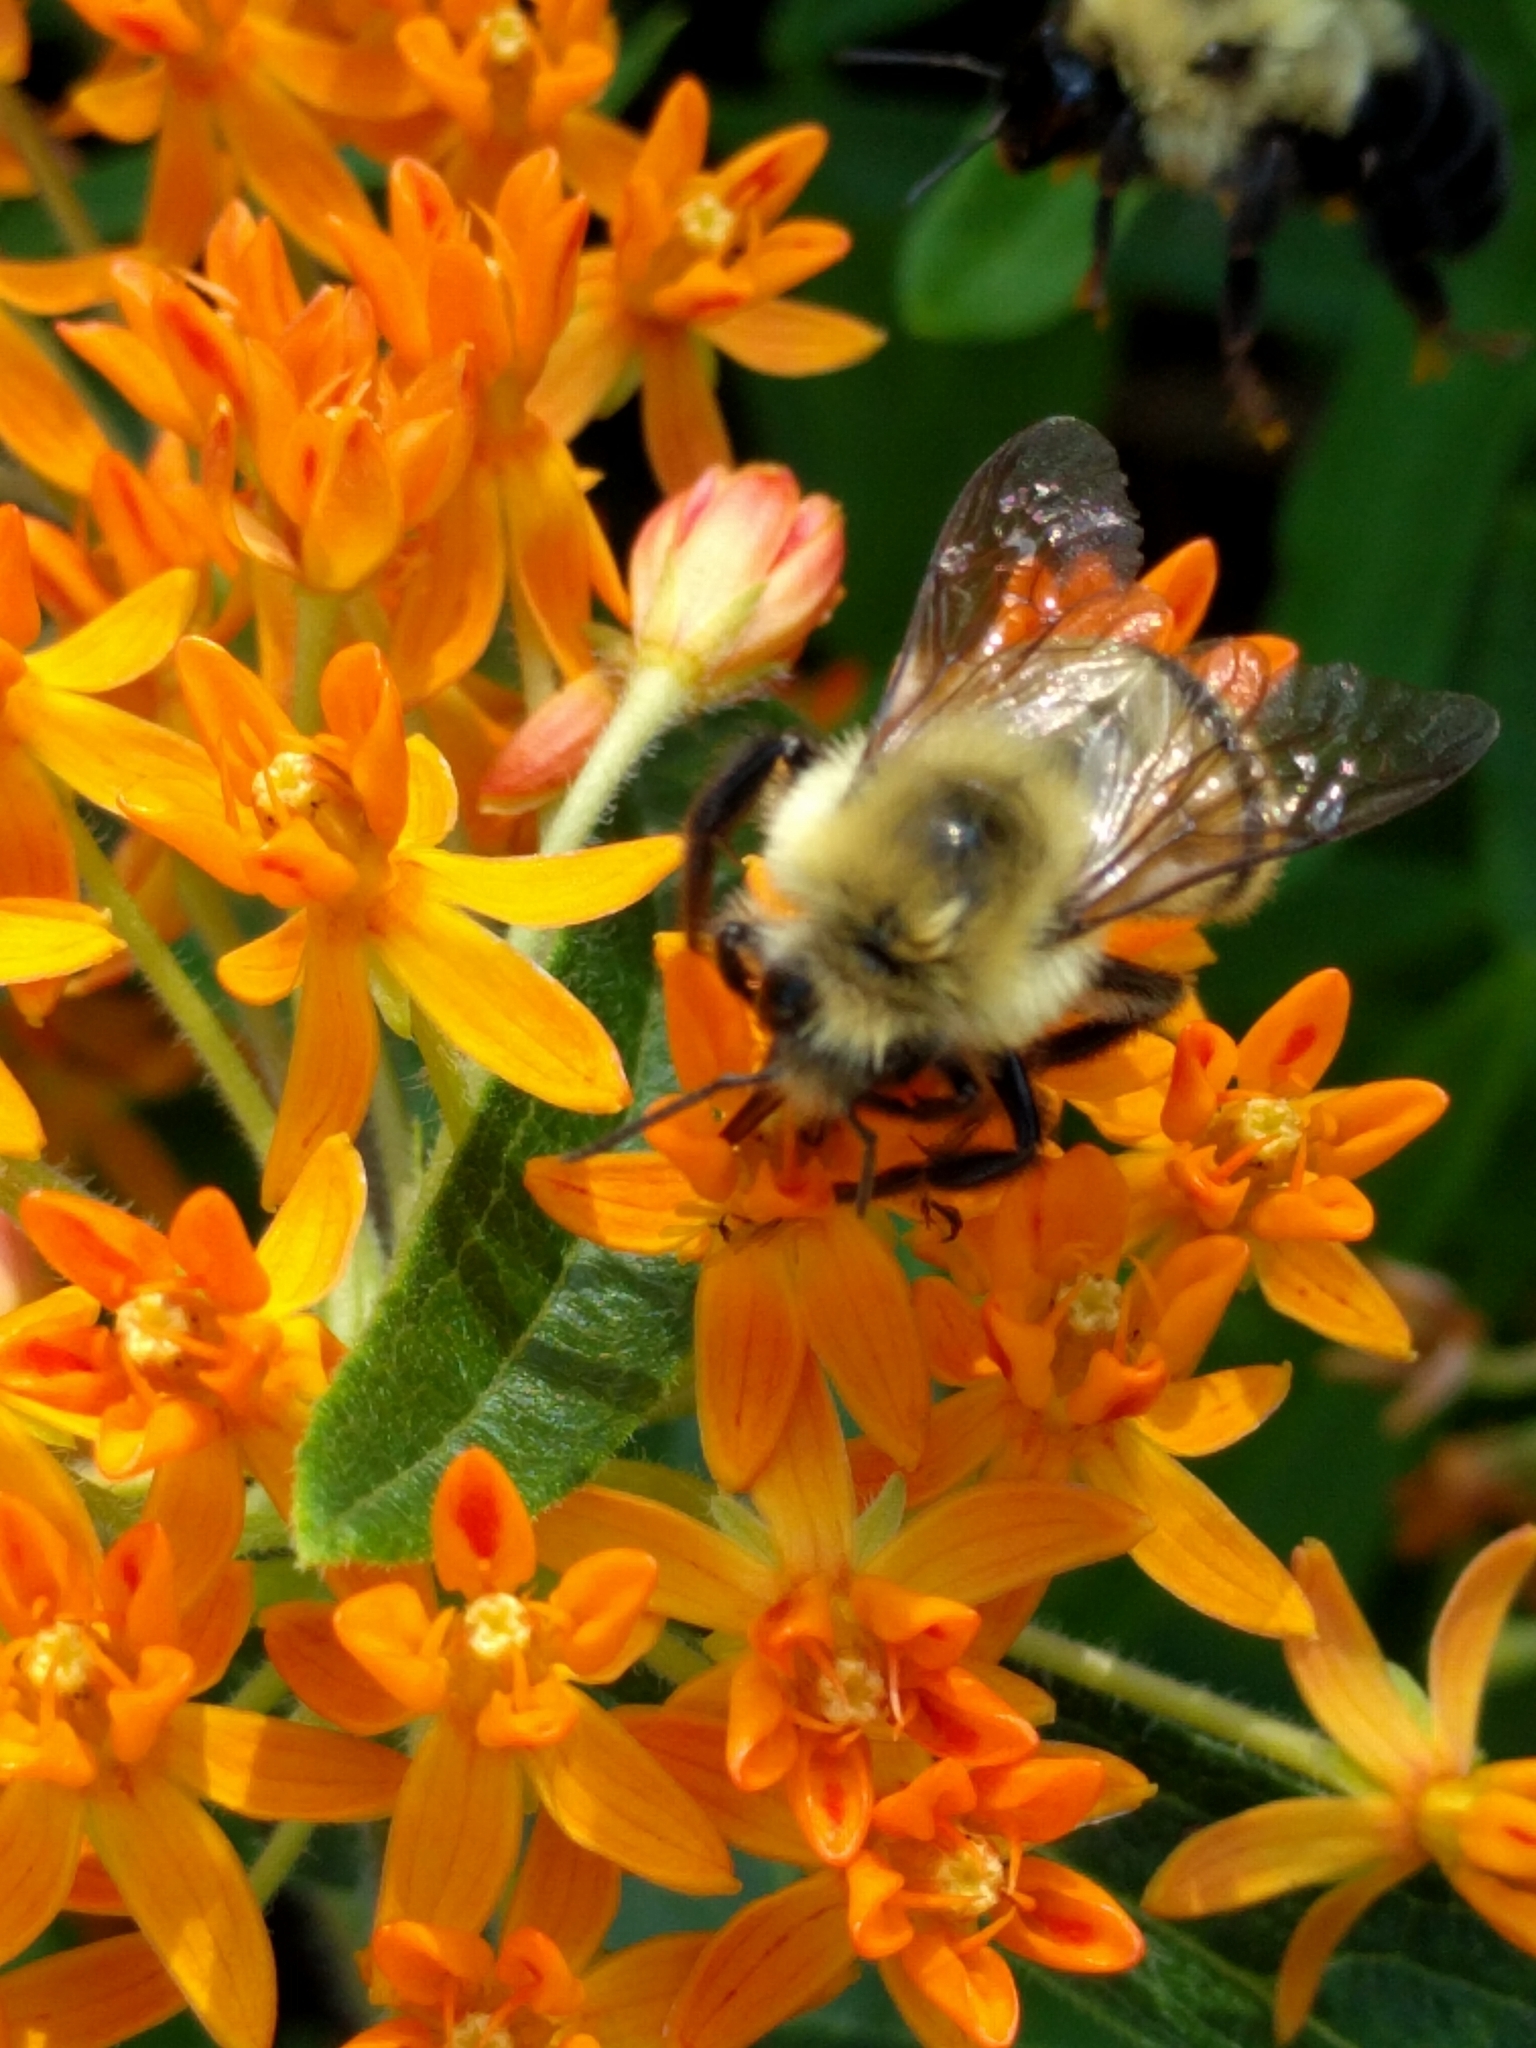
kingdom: Animalia
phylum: Arthropoda
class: Insecta
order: Hymenoptera
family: Apidae
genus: Bombus
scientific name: Bombus bimaculatus
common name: Two-spotted bumble bee
